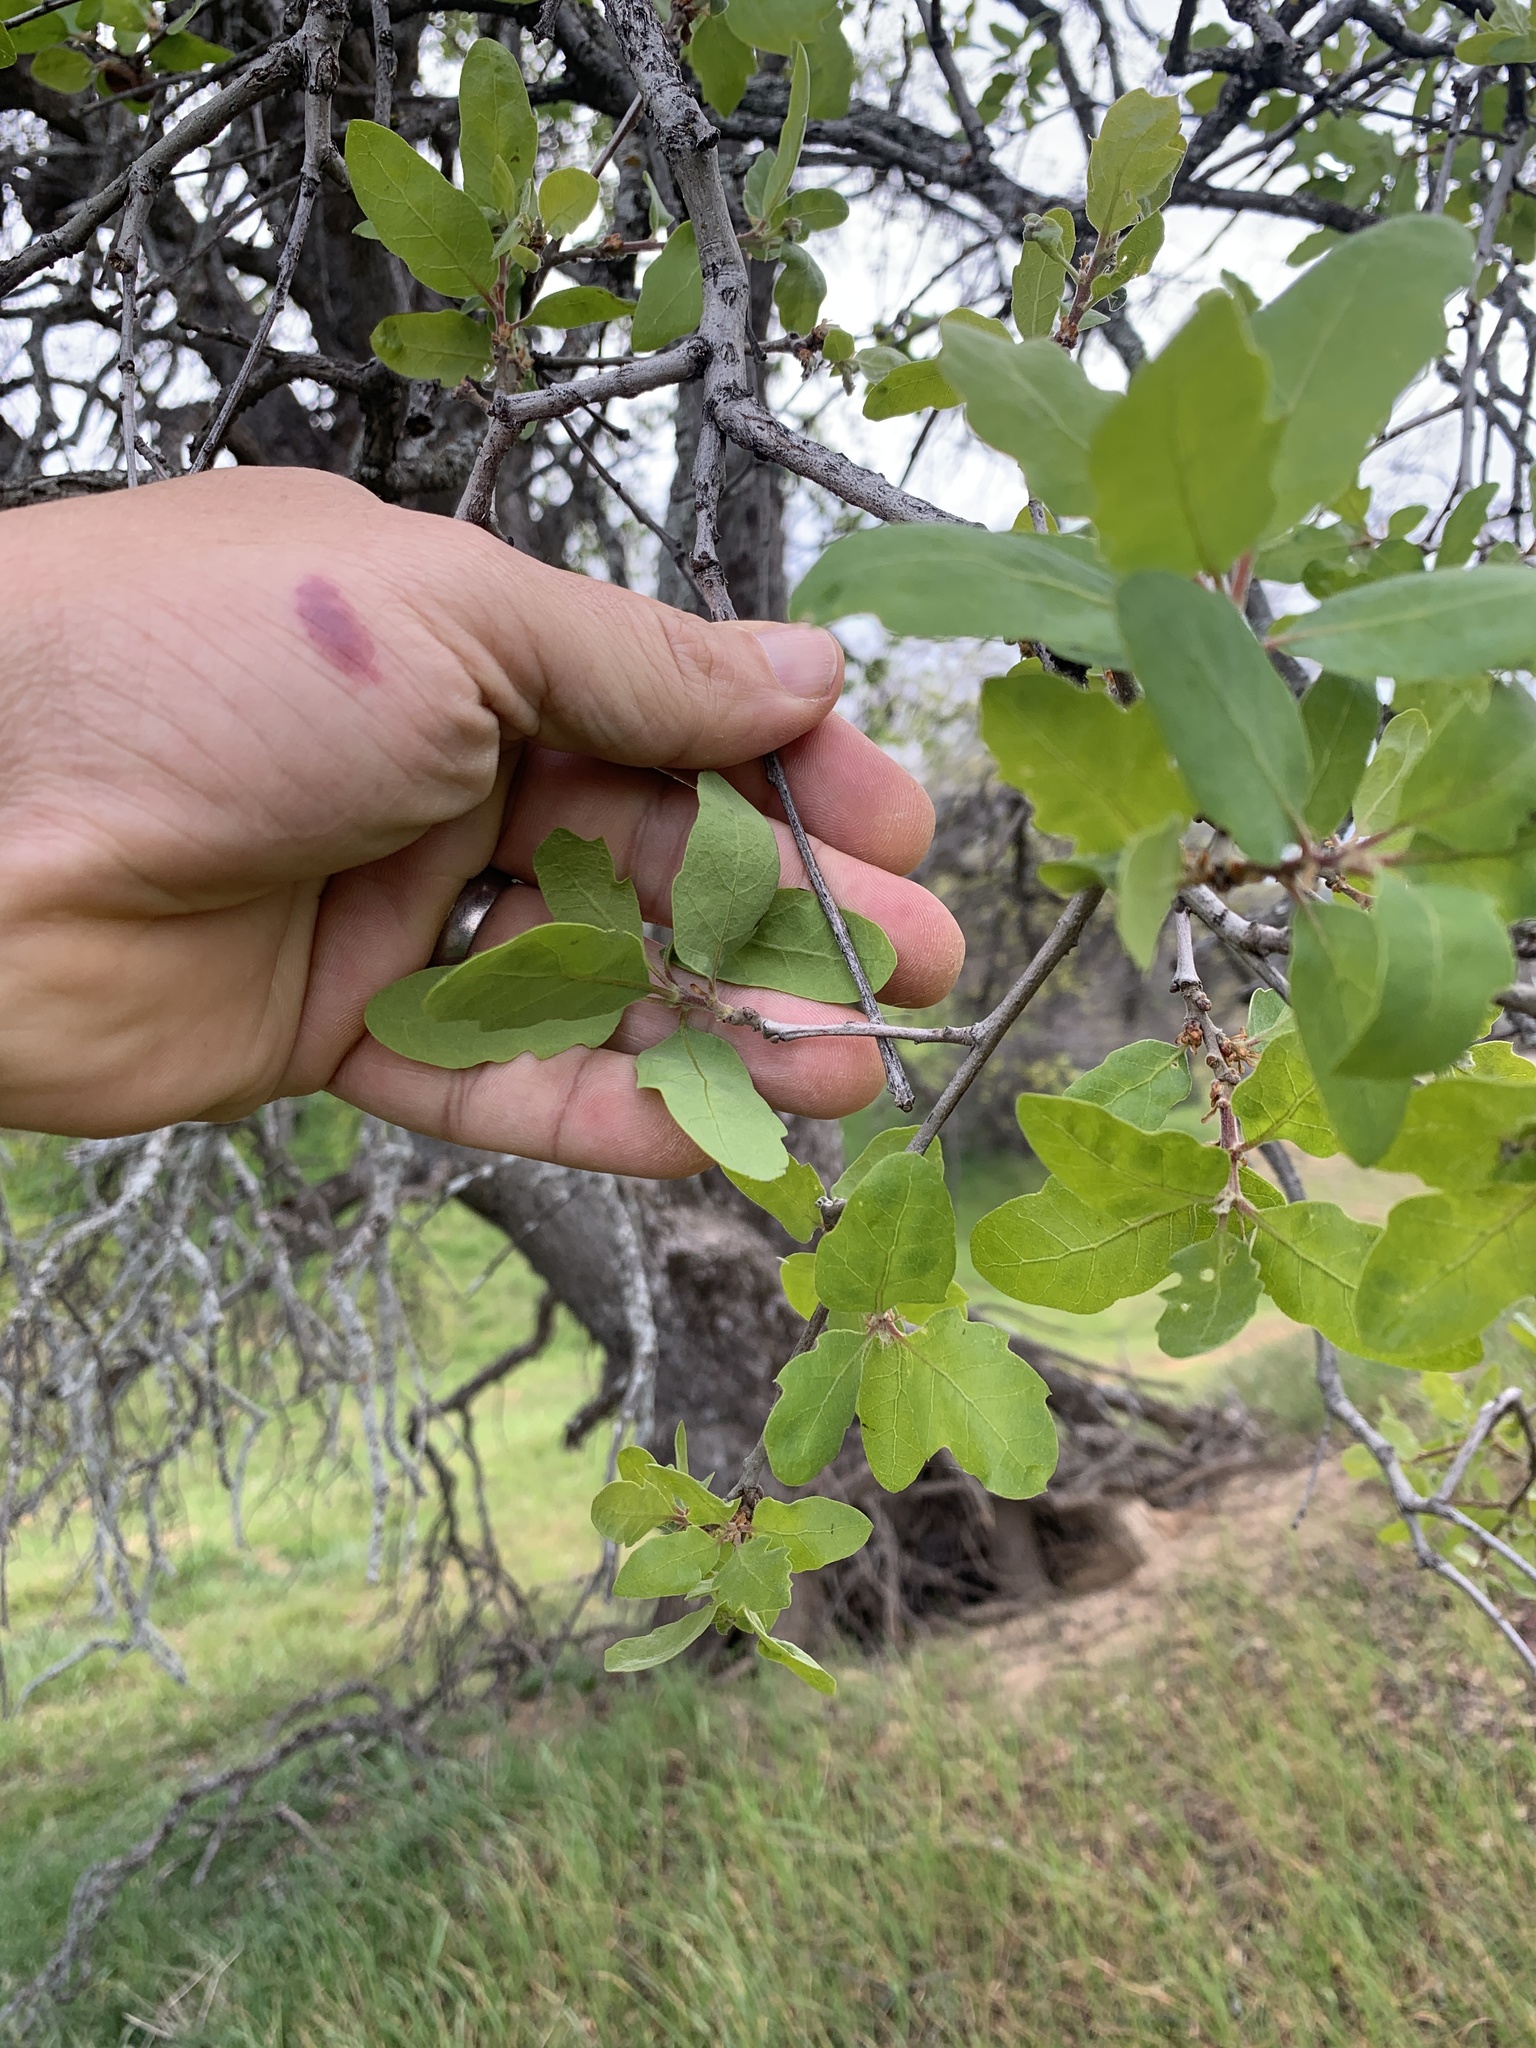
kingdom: Plantae
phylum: Tracheophyta
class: Magnoliopsida
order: Fagales
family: Fagaceae
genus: Quercus
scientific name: Quercus douglasii
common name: Blue oak
